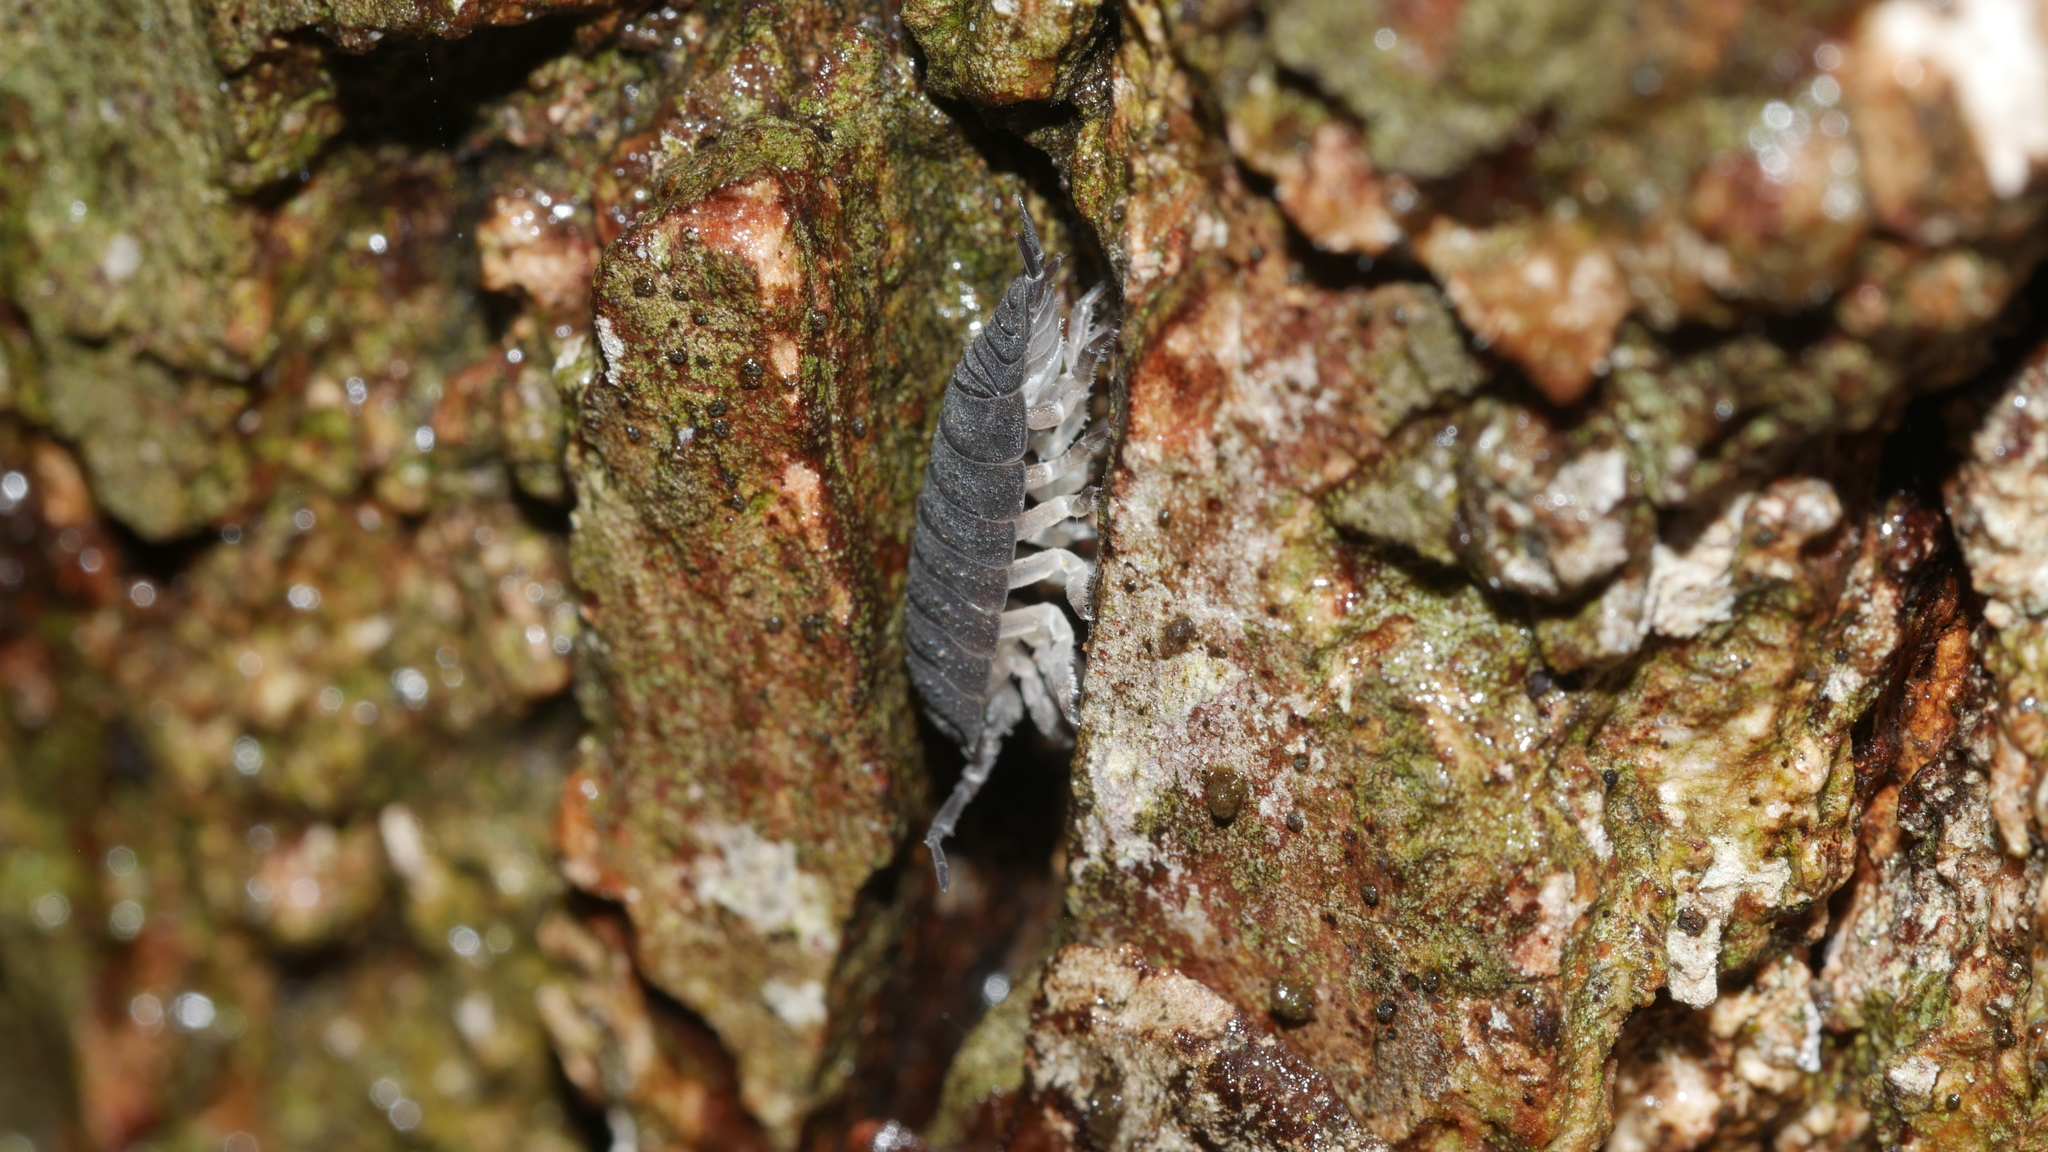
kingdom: Animalia
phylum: Arthropoda
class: Malacostraca
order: Isopoda
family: Porcellionidae
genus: Porcellio
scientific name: Porcellio scaber
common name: Common rough woodlouse
